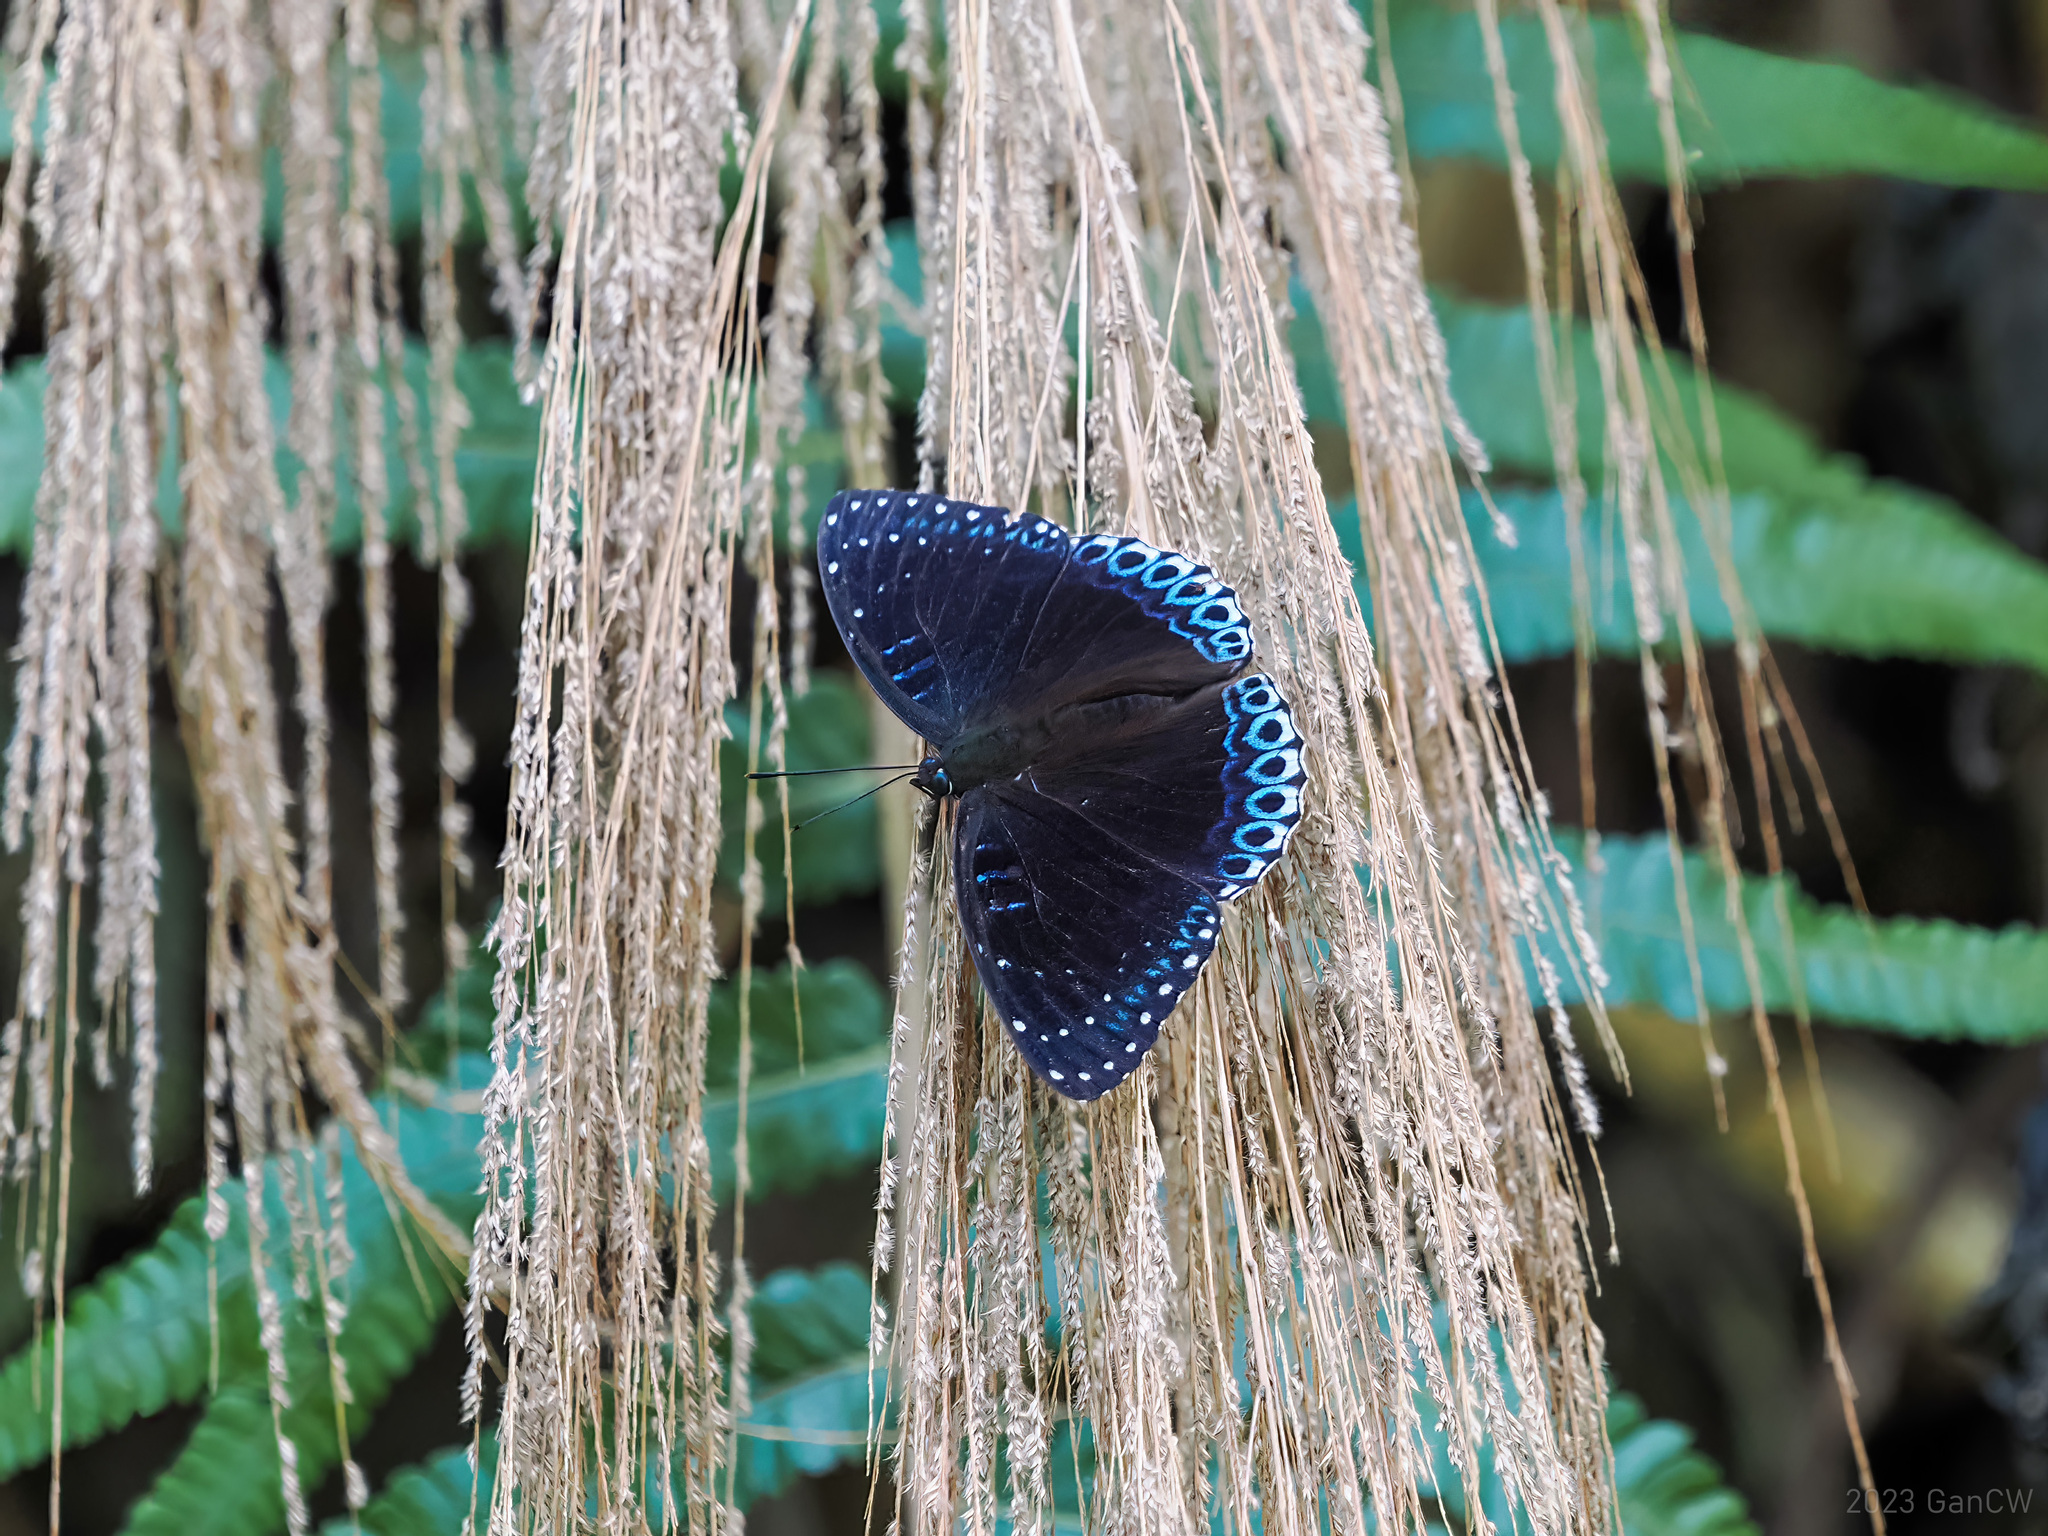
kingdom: Animalia
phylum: Arthropoda
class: Insecta
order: Lepidoptera
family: Nymphalidae
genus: Stibochiona
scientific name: Stibochiona nicea
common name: Popinjay
